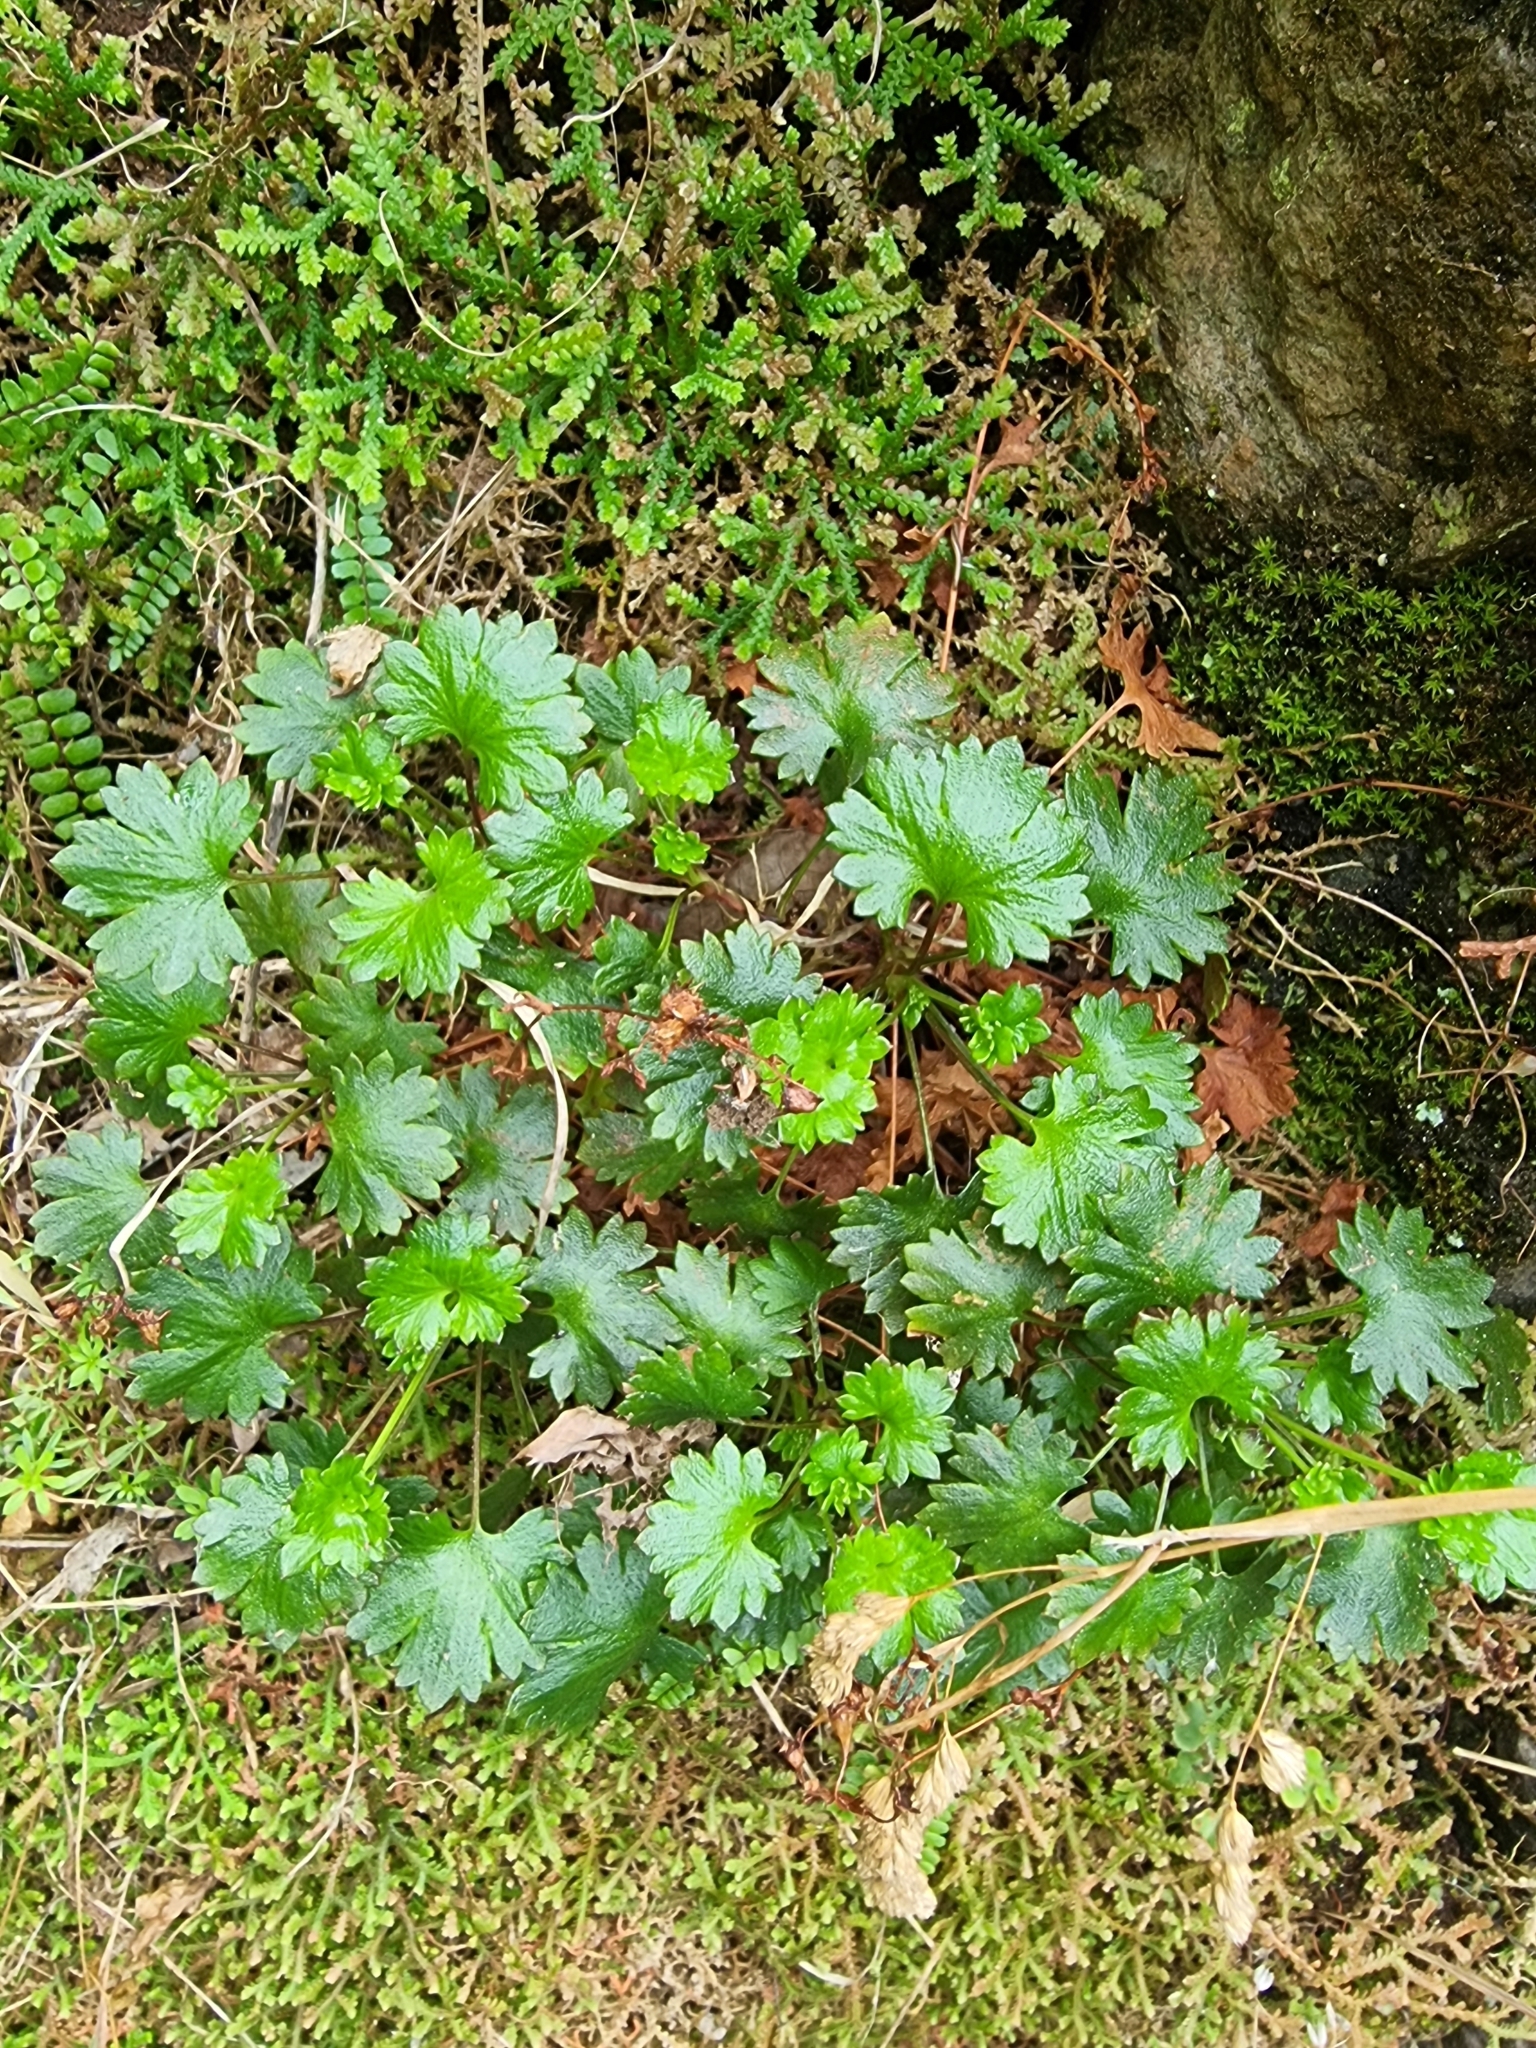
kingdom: Plantae
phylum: Tracheophyta
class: Magnoliopsida
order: Saxifragales
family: Saxifragaceae
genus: Saxifraga
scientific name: Saxifraga maderensis
